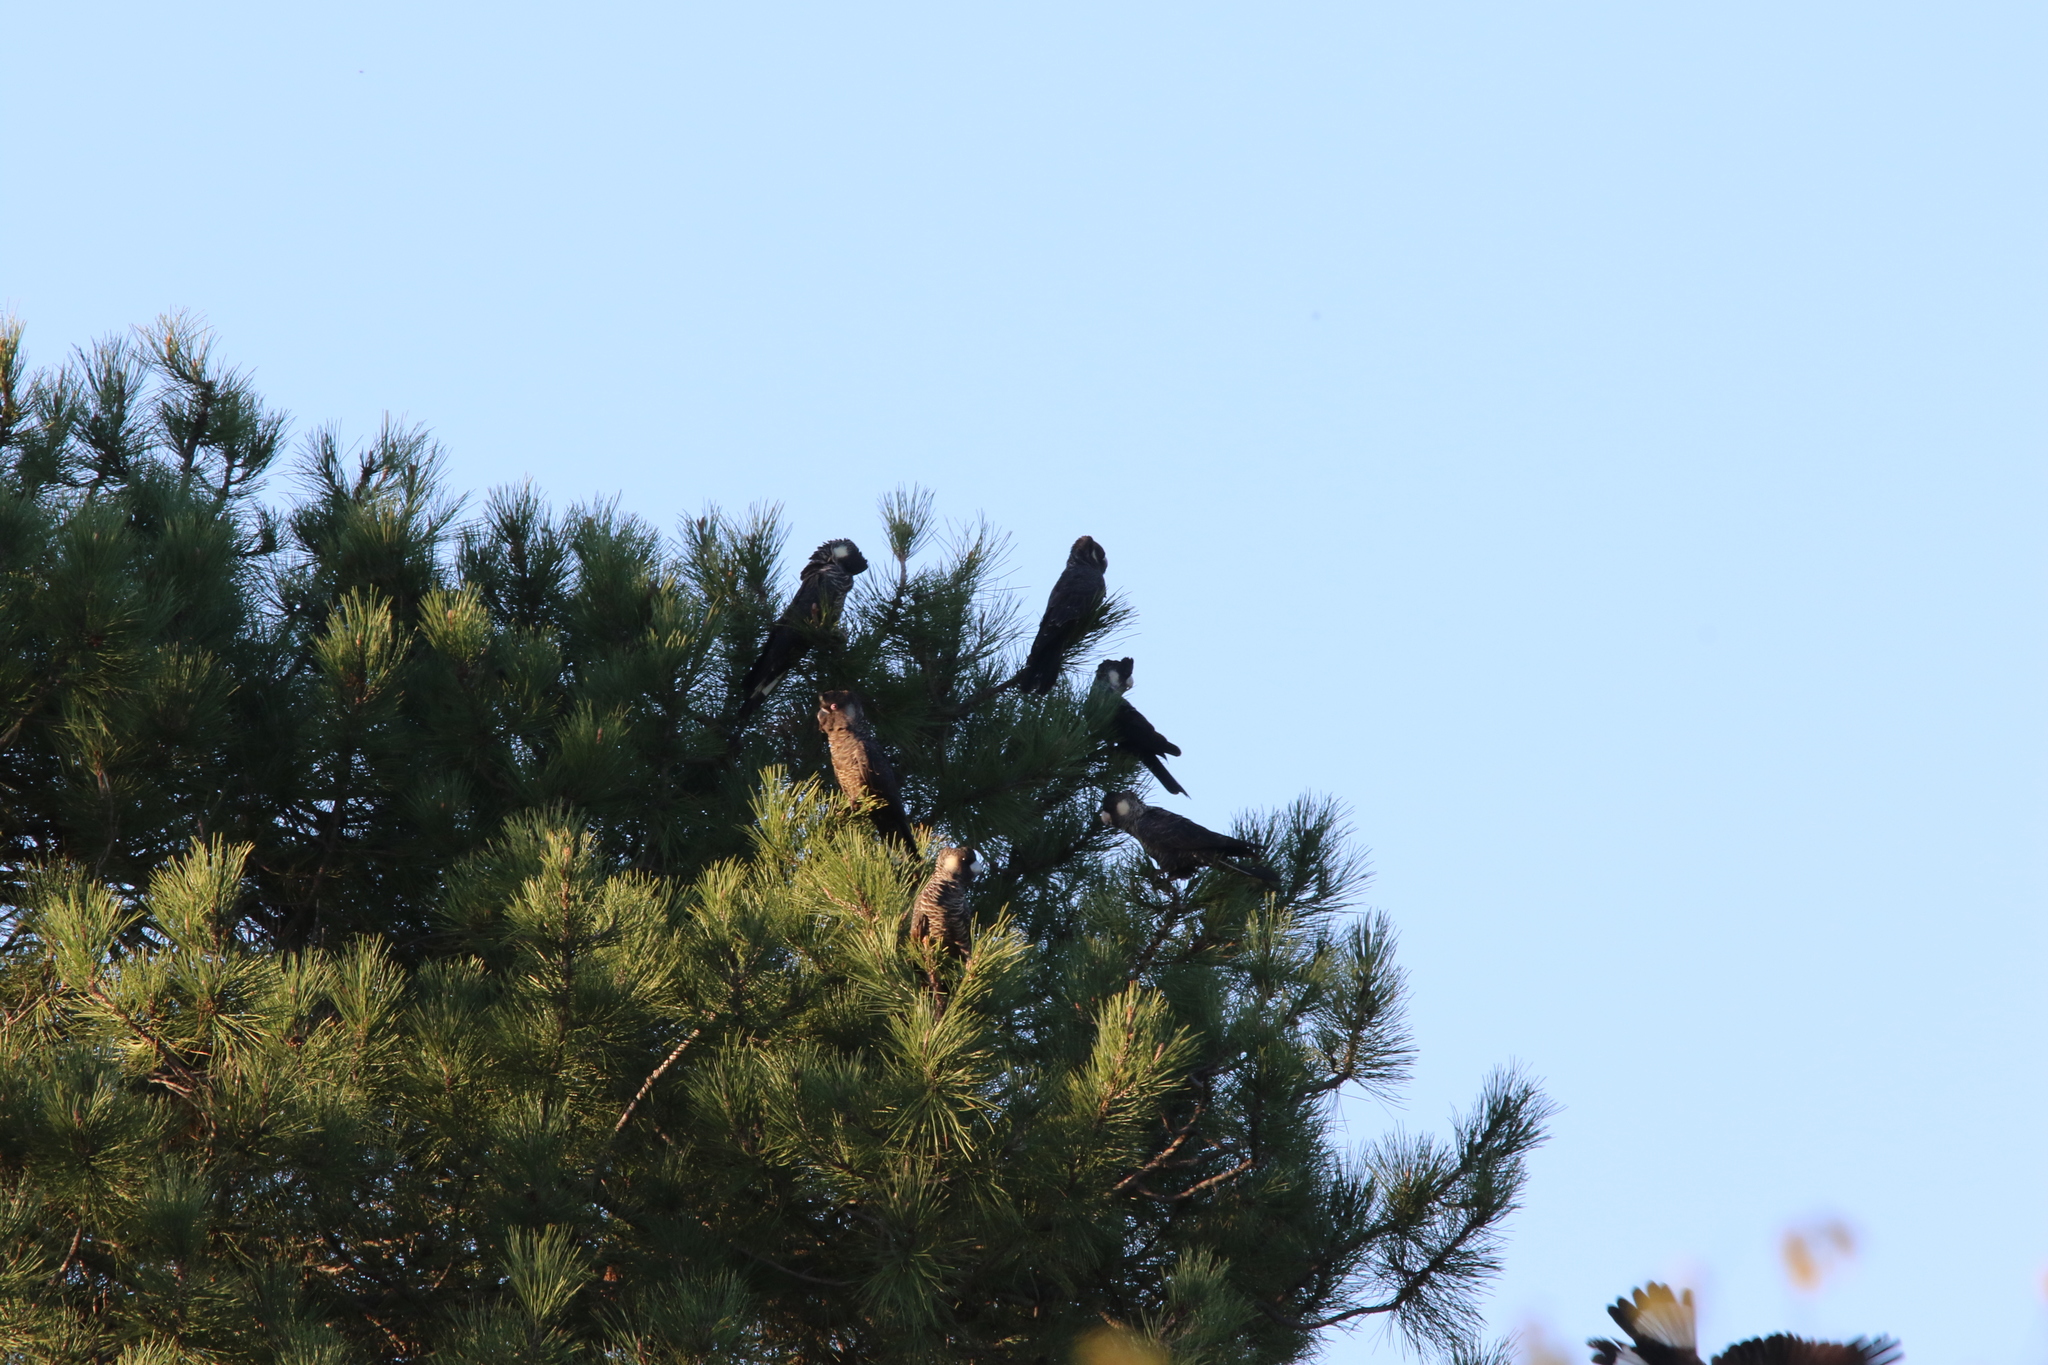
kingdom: Animalia
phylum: Chordata
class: Aves
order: Psittaciformes
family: Cacatuidae
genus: Zanda
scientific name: Zanda latirostris
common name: Short-billed black-cockatoo
